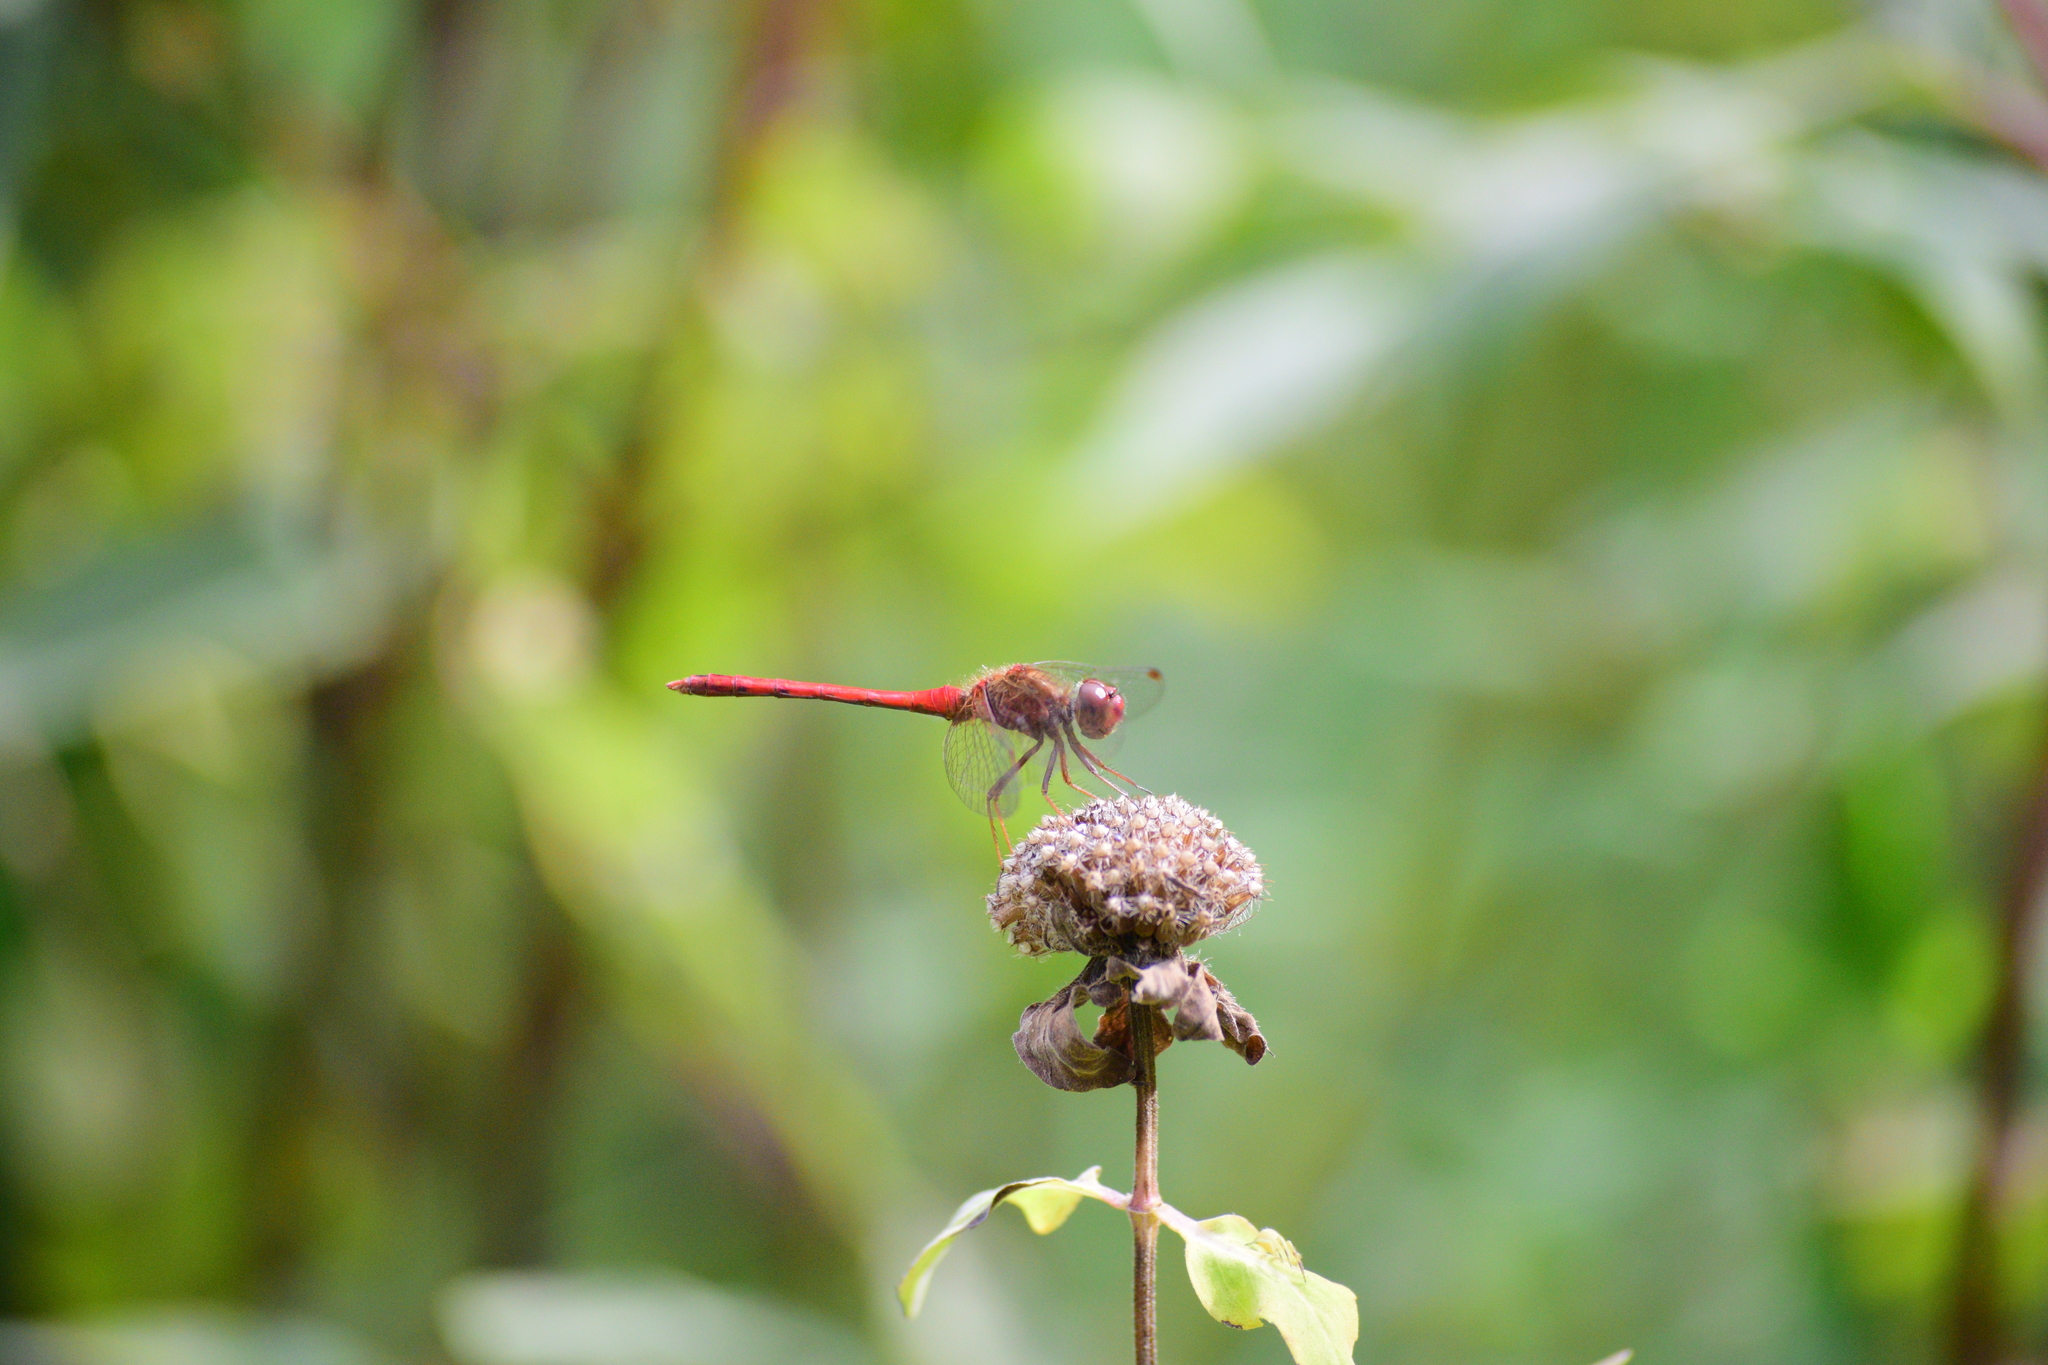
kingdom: Animalia
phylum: Arthropoda
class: Insecta
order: Odonata
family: Libellulidae
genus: Sympetrum
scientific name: Sympetrum vicinum
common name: Autumn meadowhawk
